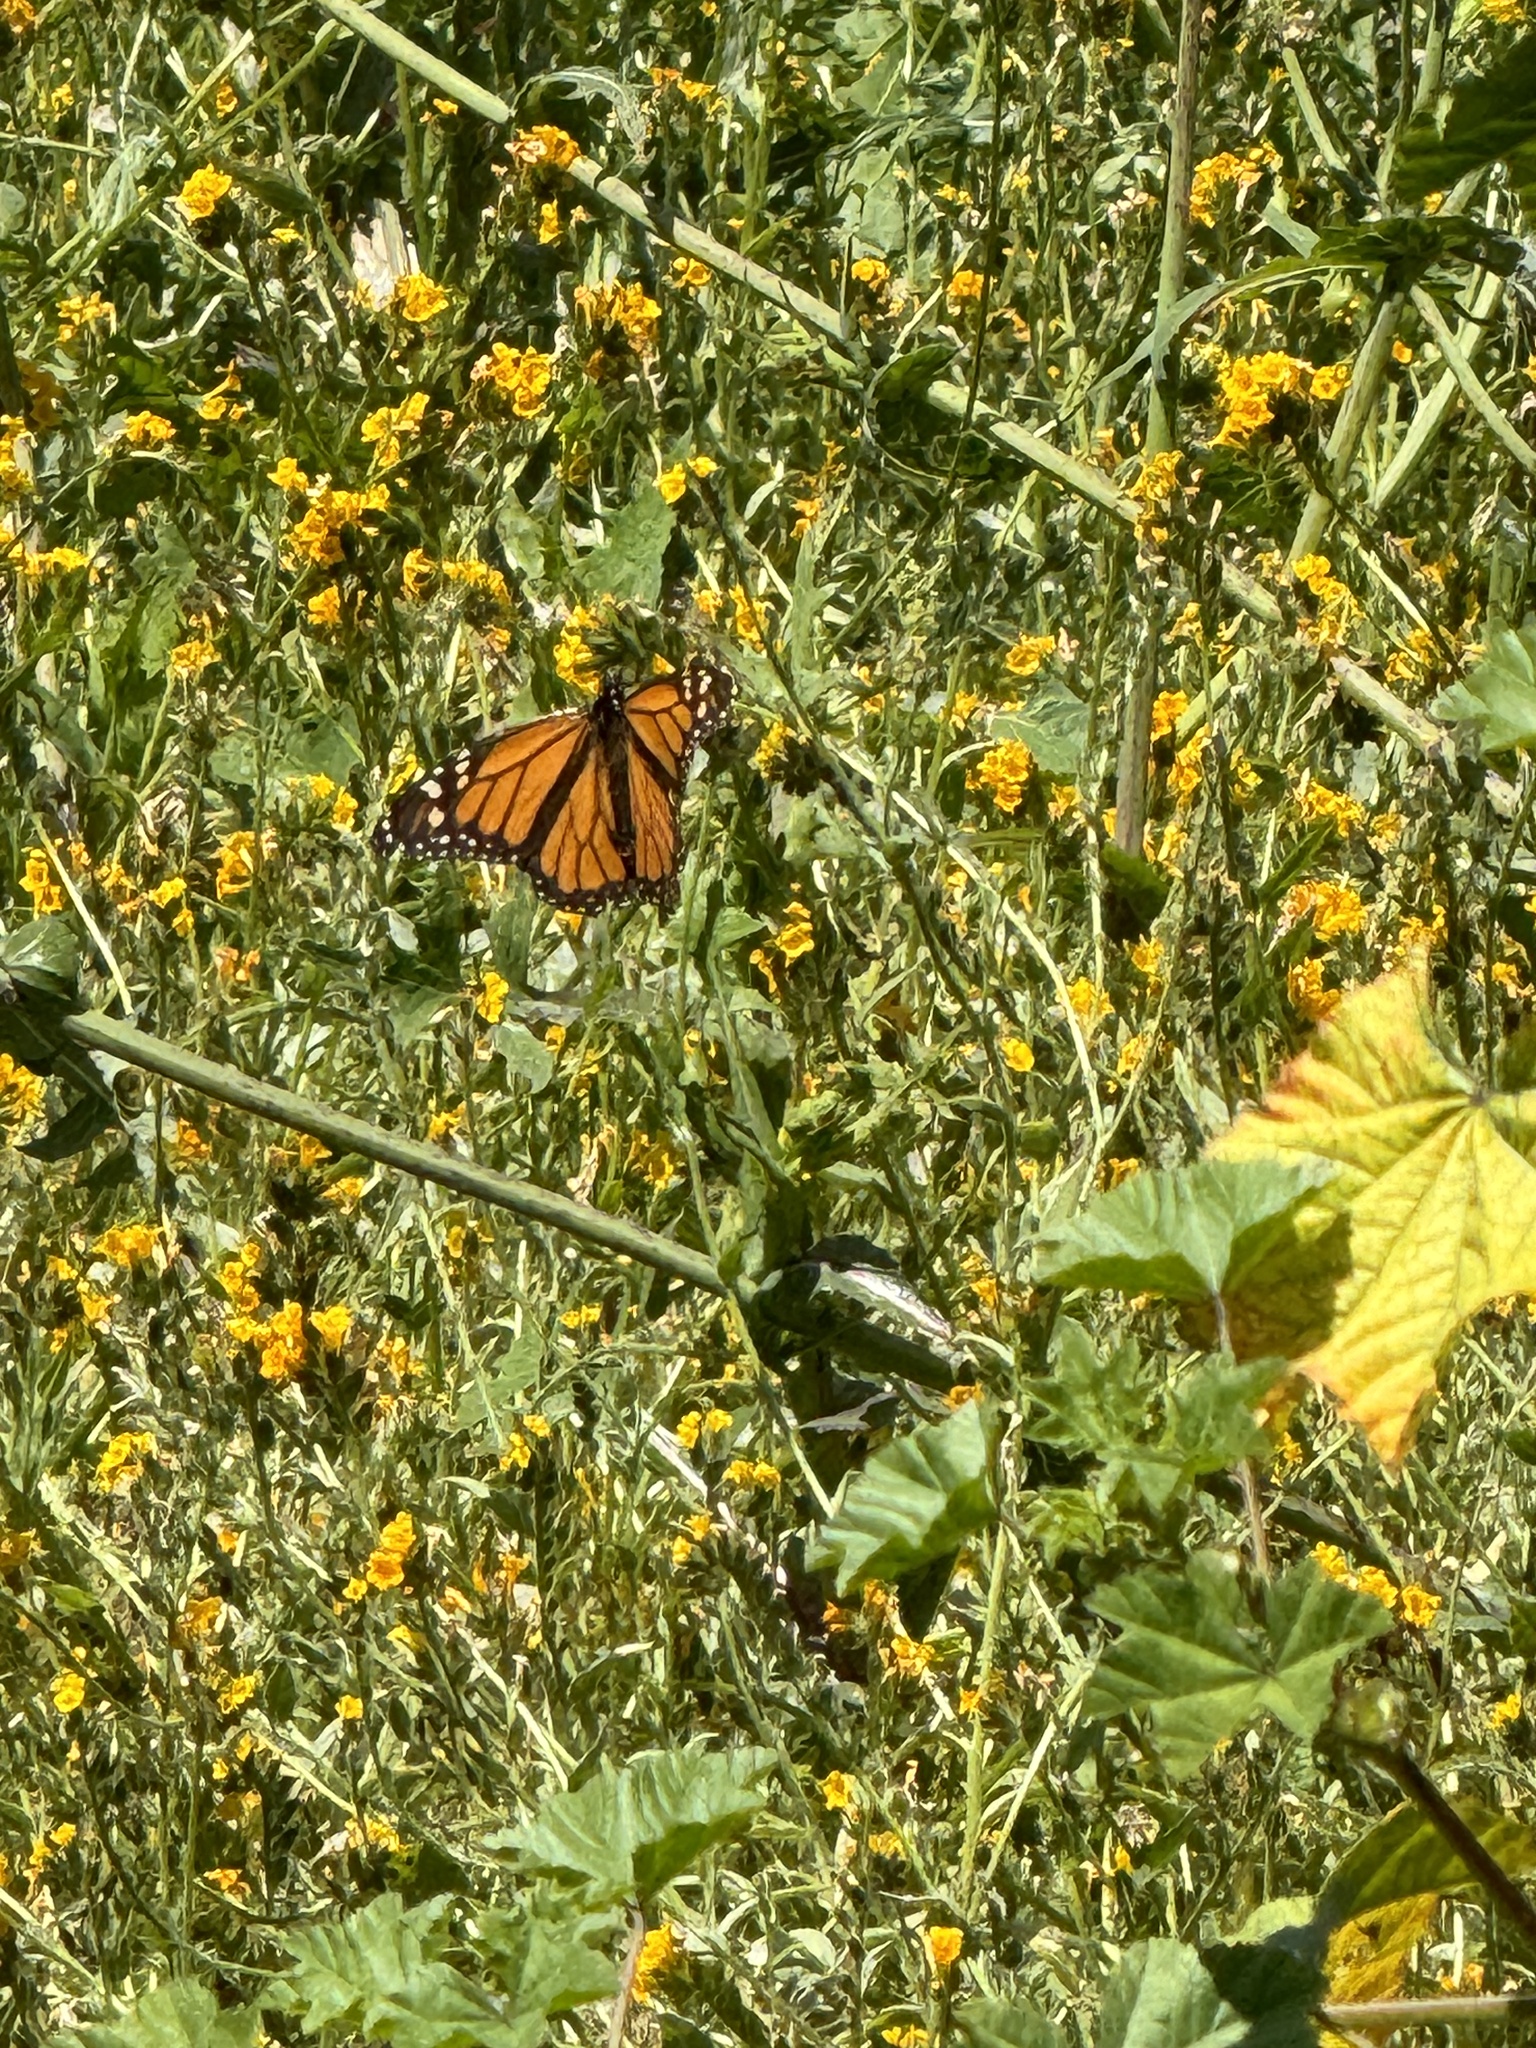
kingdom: Animalia
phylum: Arthropoda
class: Insecta
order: Lepidoptera
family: Nymphalidae
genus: Danaus
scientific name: Danaus plexippus
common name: Monarch
